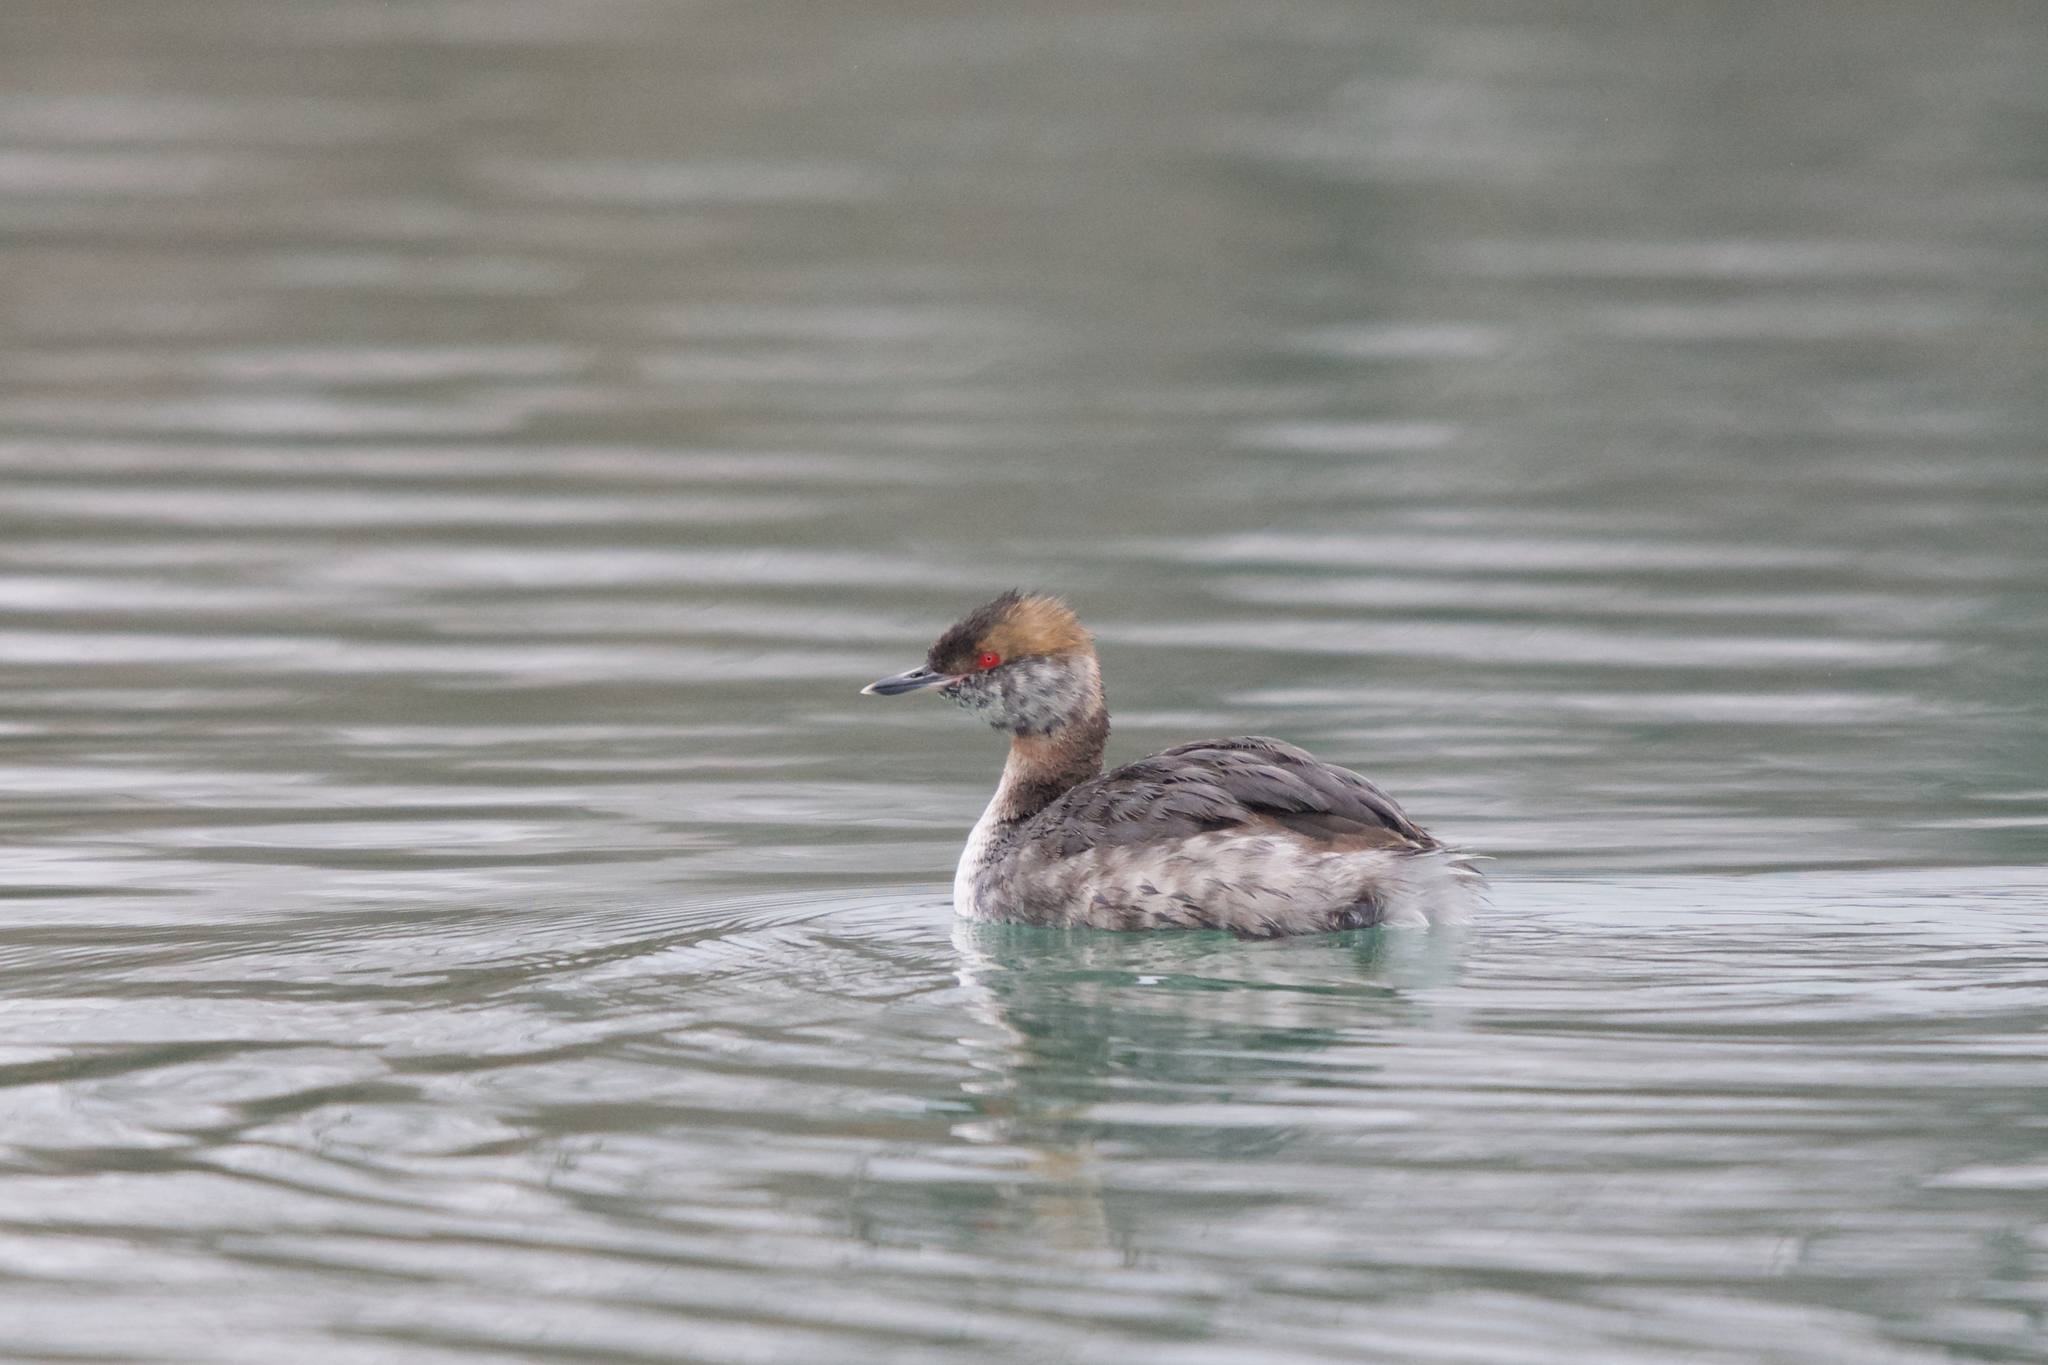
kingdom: Animalia
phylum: Chordata
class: Aves
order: Podicipediformes
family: Podicipedidae
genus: Podiceps
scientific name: Podiceps auritus
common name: Horned grebe
